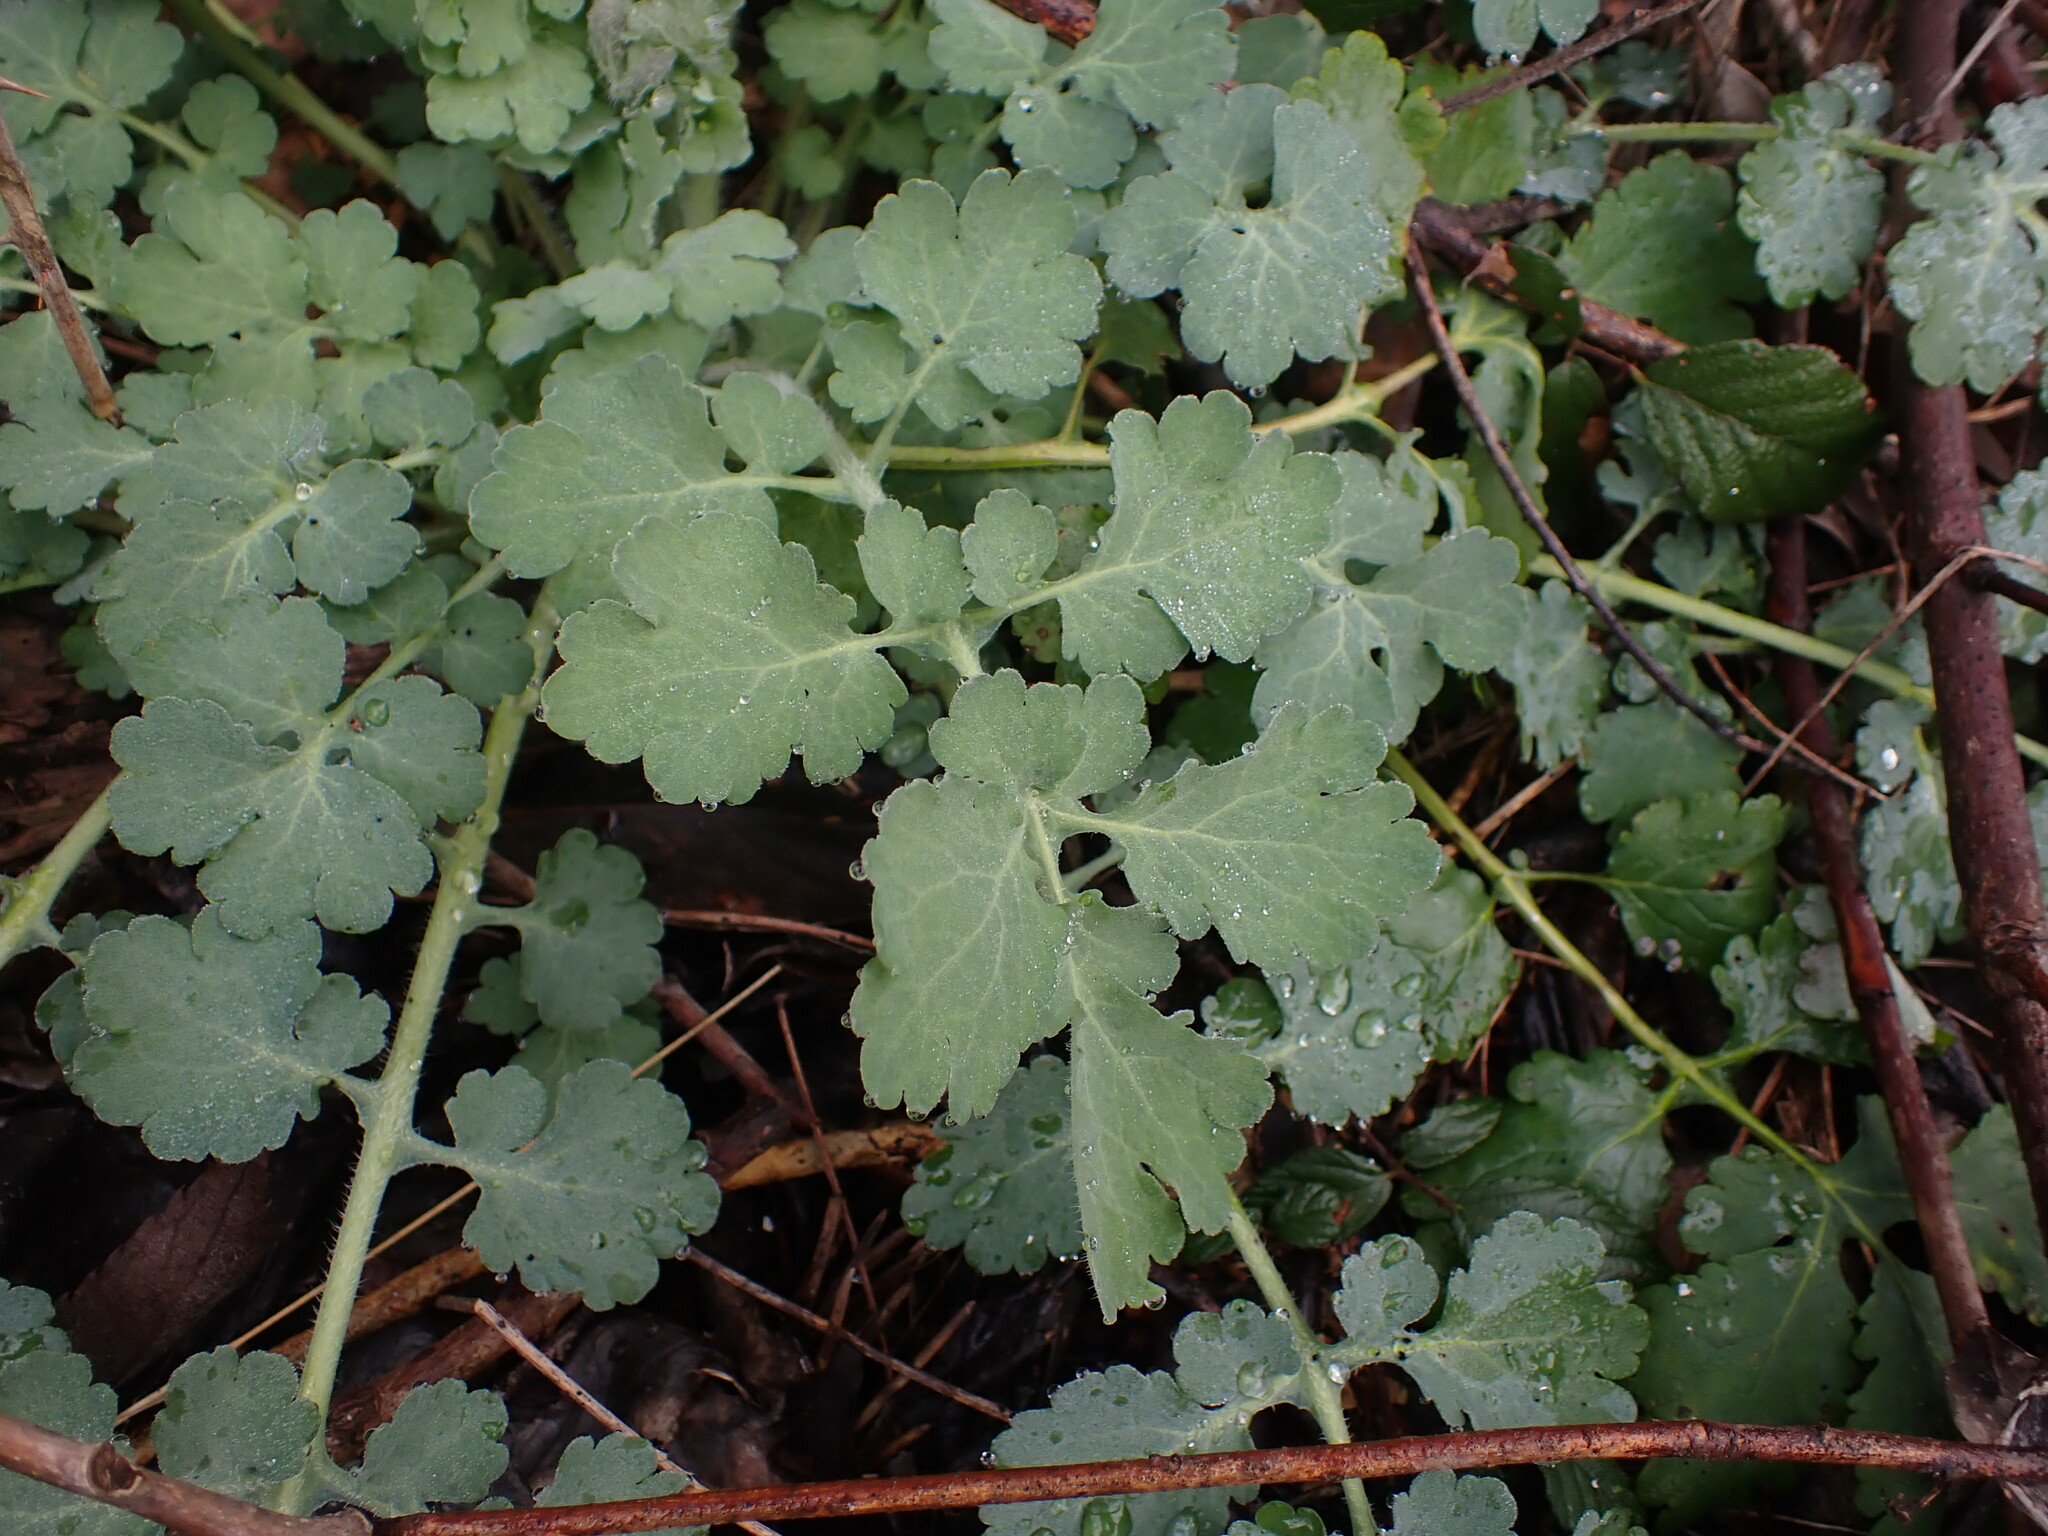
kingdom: Plantae
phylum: Tracheophyta
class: Magnoliopsida
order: Ranunculales
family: Papaveraceae
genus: Chelidonium
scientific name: Chelidonium majus
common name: Greater celandine
